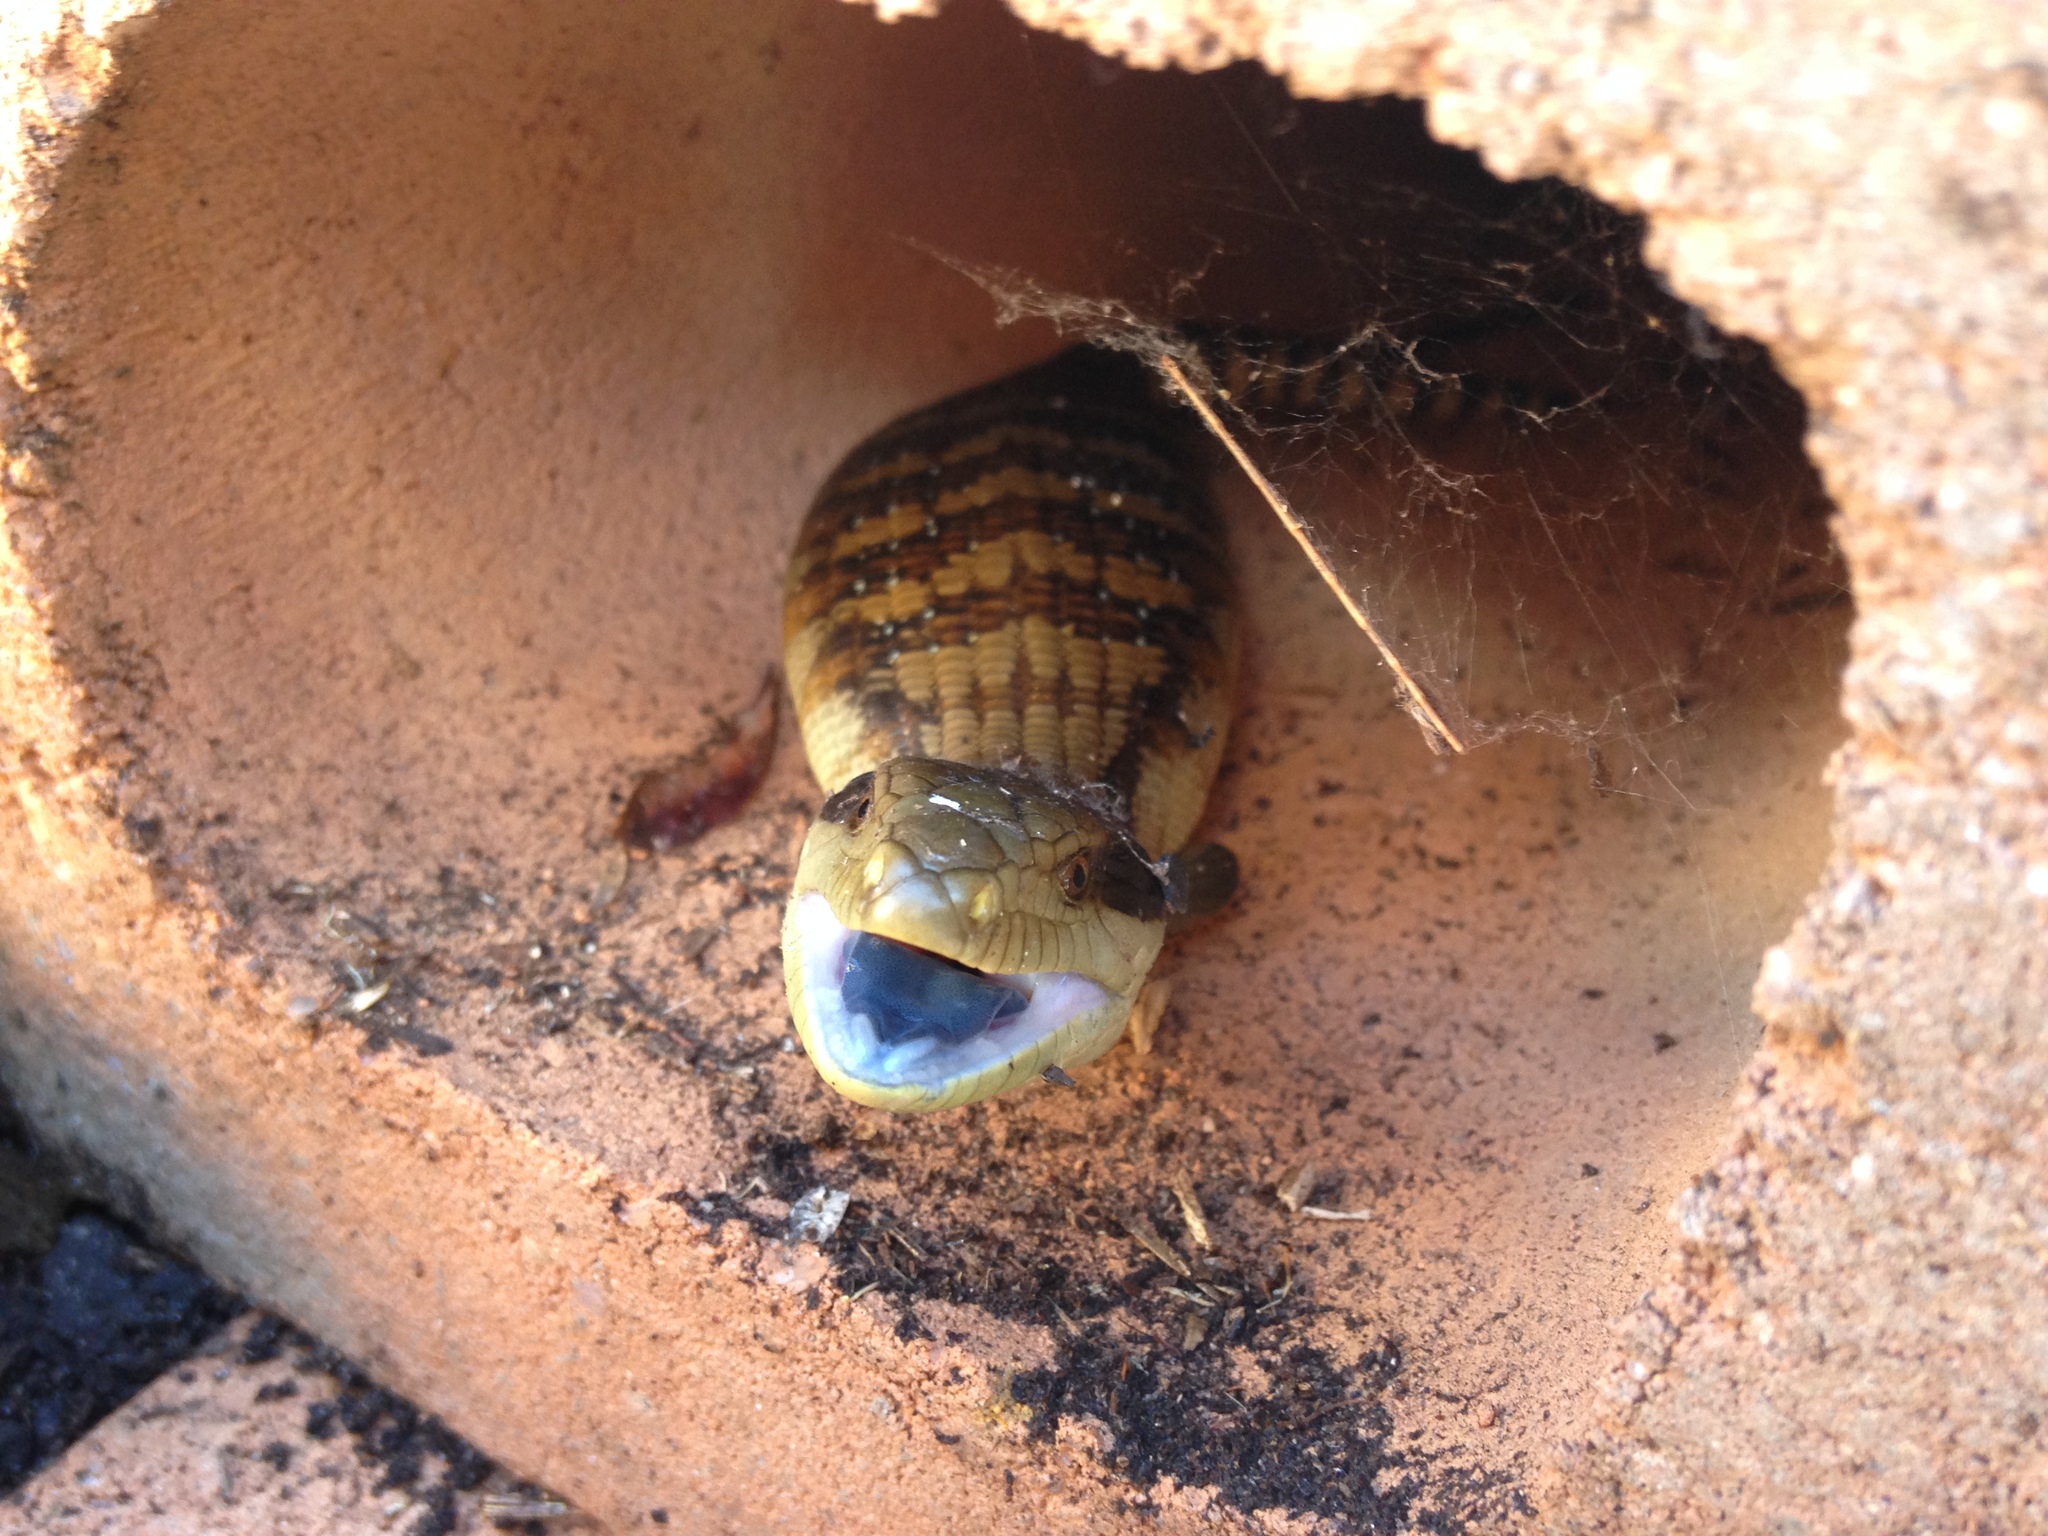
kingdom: Animalia
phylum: Chordata
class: Squamata
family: Scincidae
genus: Tiliqua
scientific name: Tiliqua scincoides
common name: Common bluetongue
